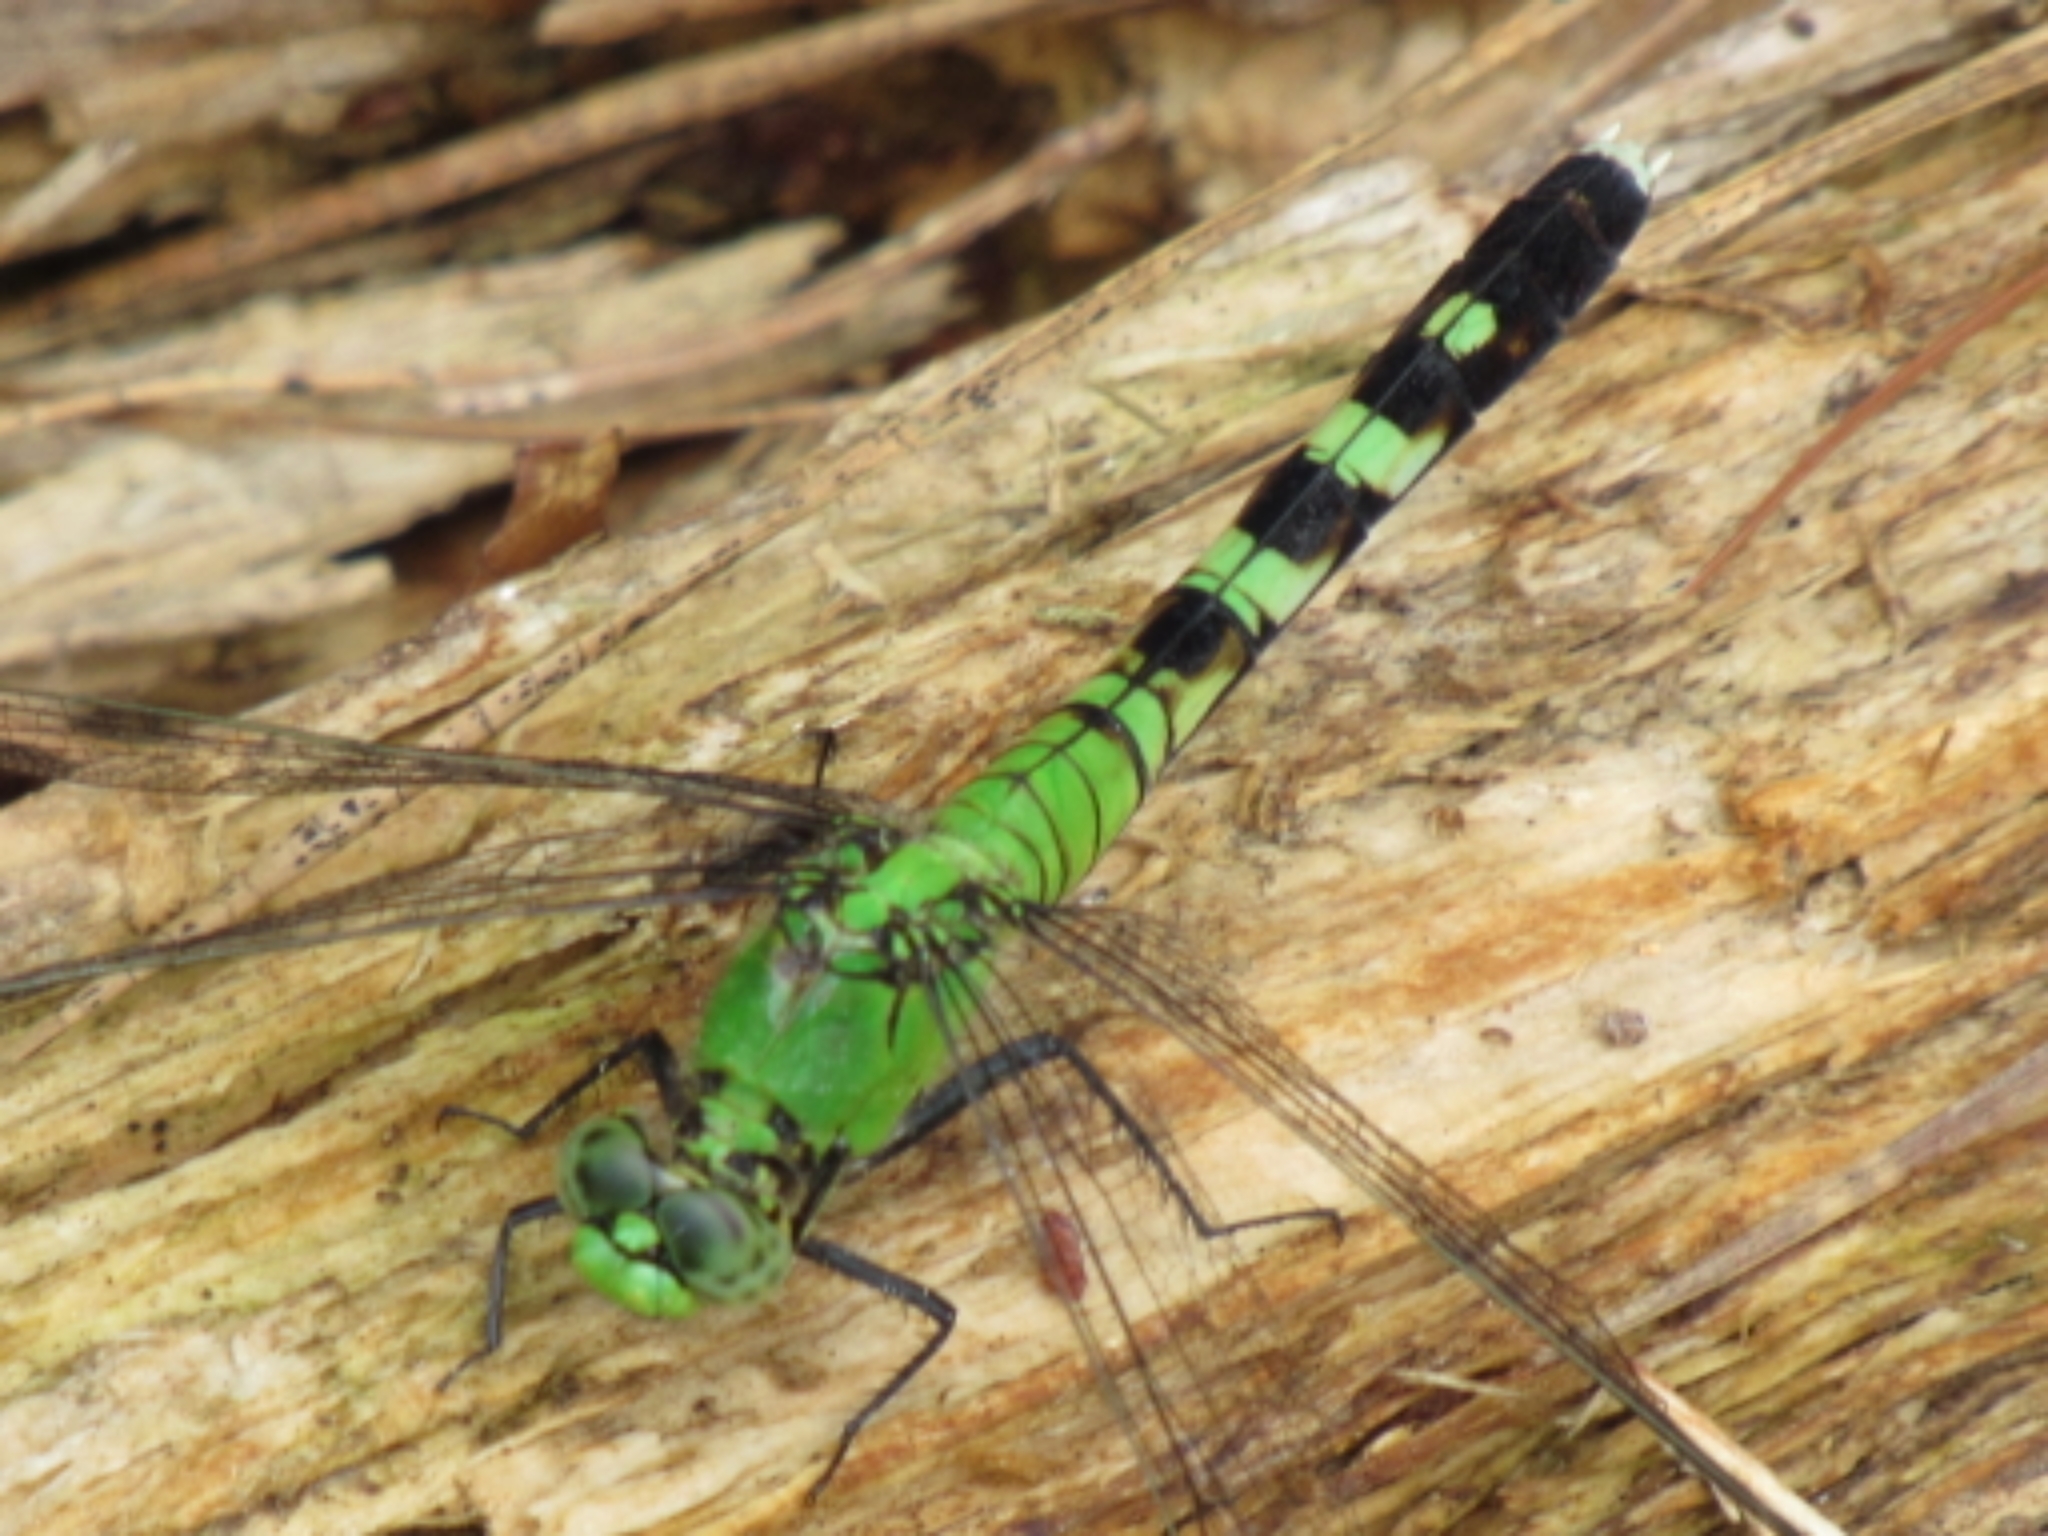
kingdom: Animalia
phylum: Arthropoda
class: Insecta
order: Odonata
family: Libellulidae
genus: Erythemis
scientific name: Erythemis simplicicollis
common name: Eastern pondhawk
